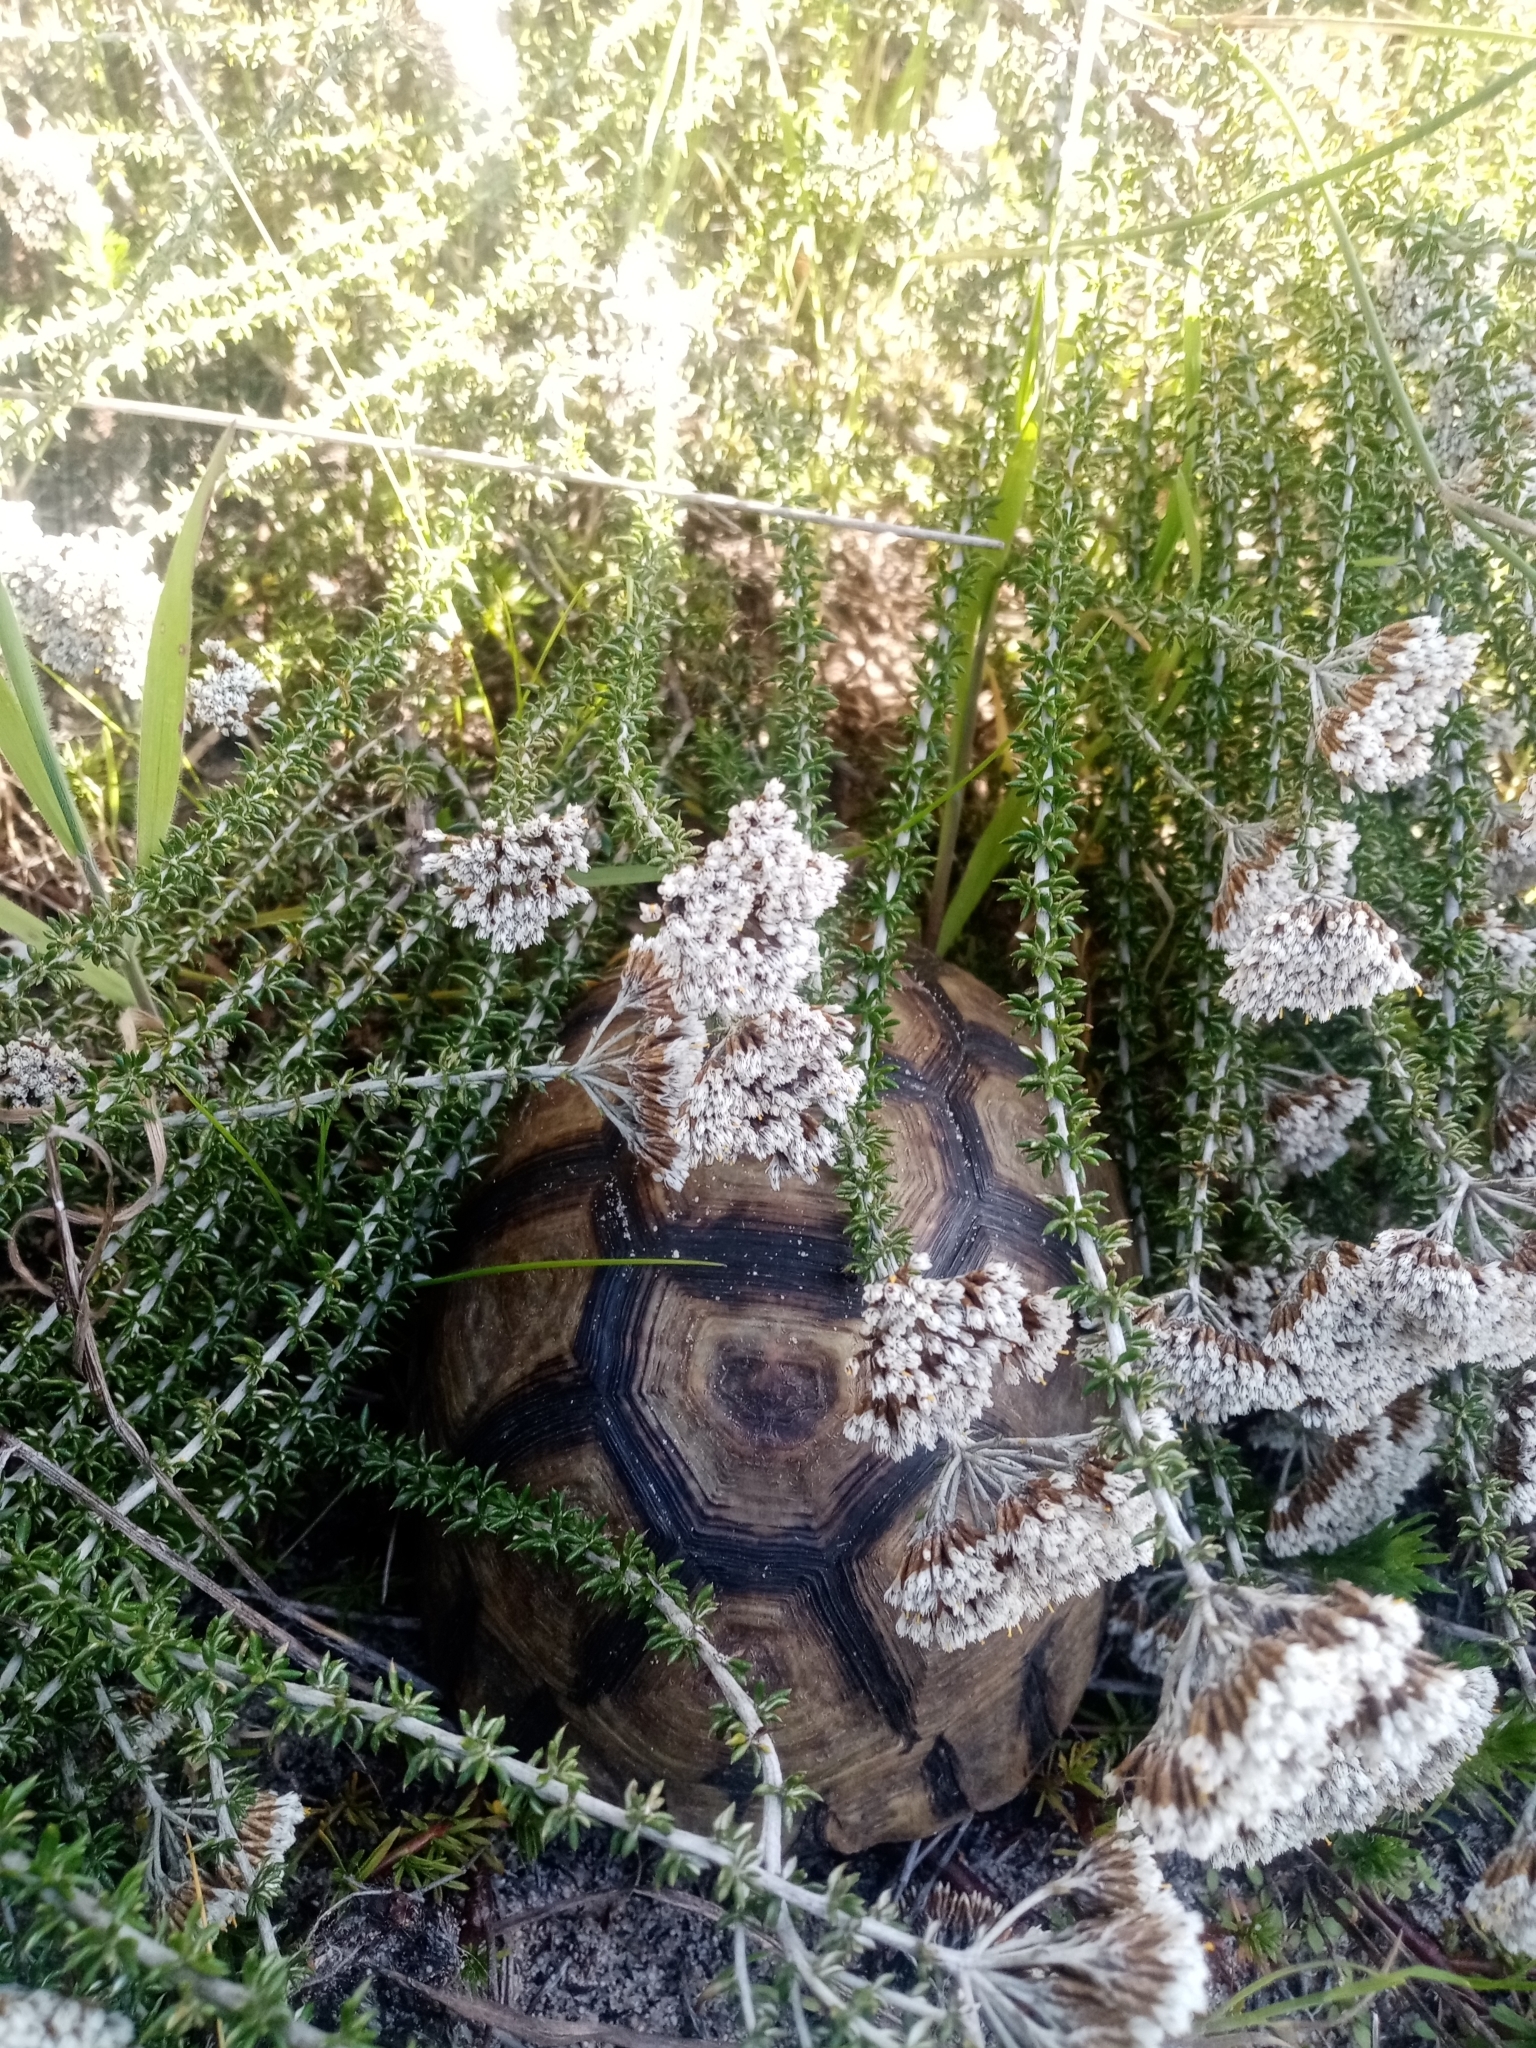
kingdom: Animalia
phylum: Chordata
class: Testudines
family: Testudinidae
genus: Chersina
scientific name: Chersina angulata
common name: South african bowsprit tortoise
